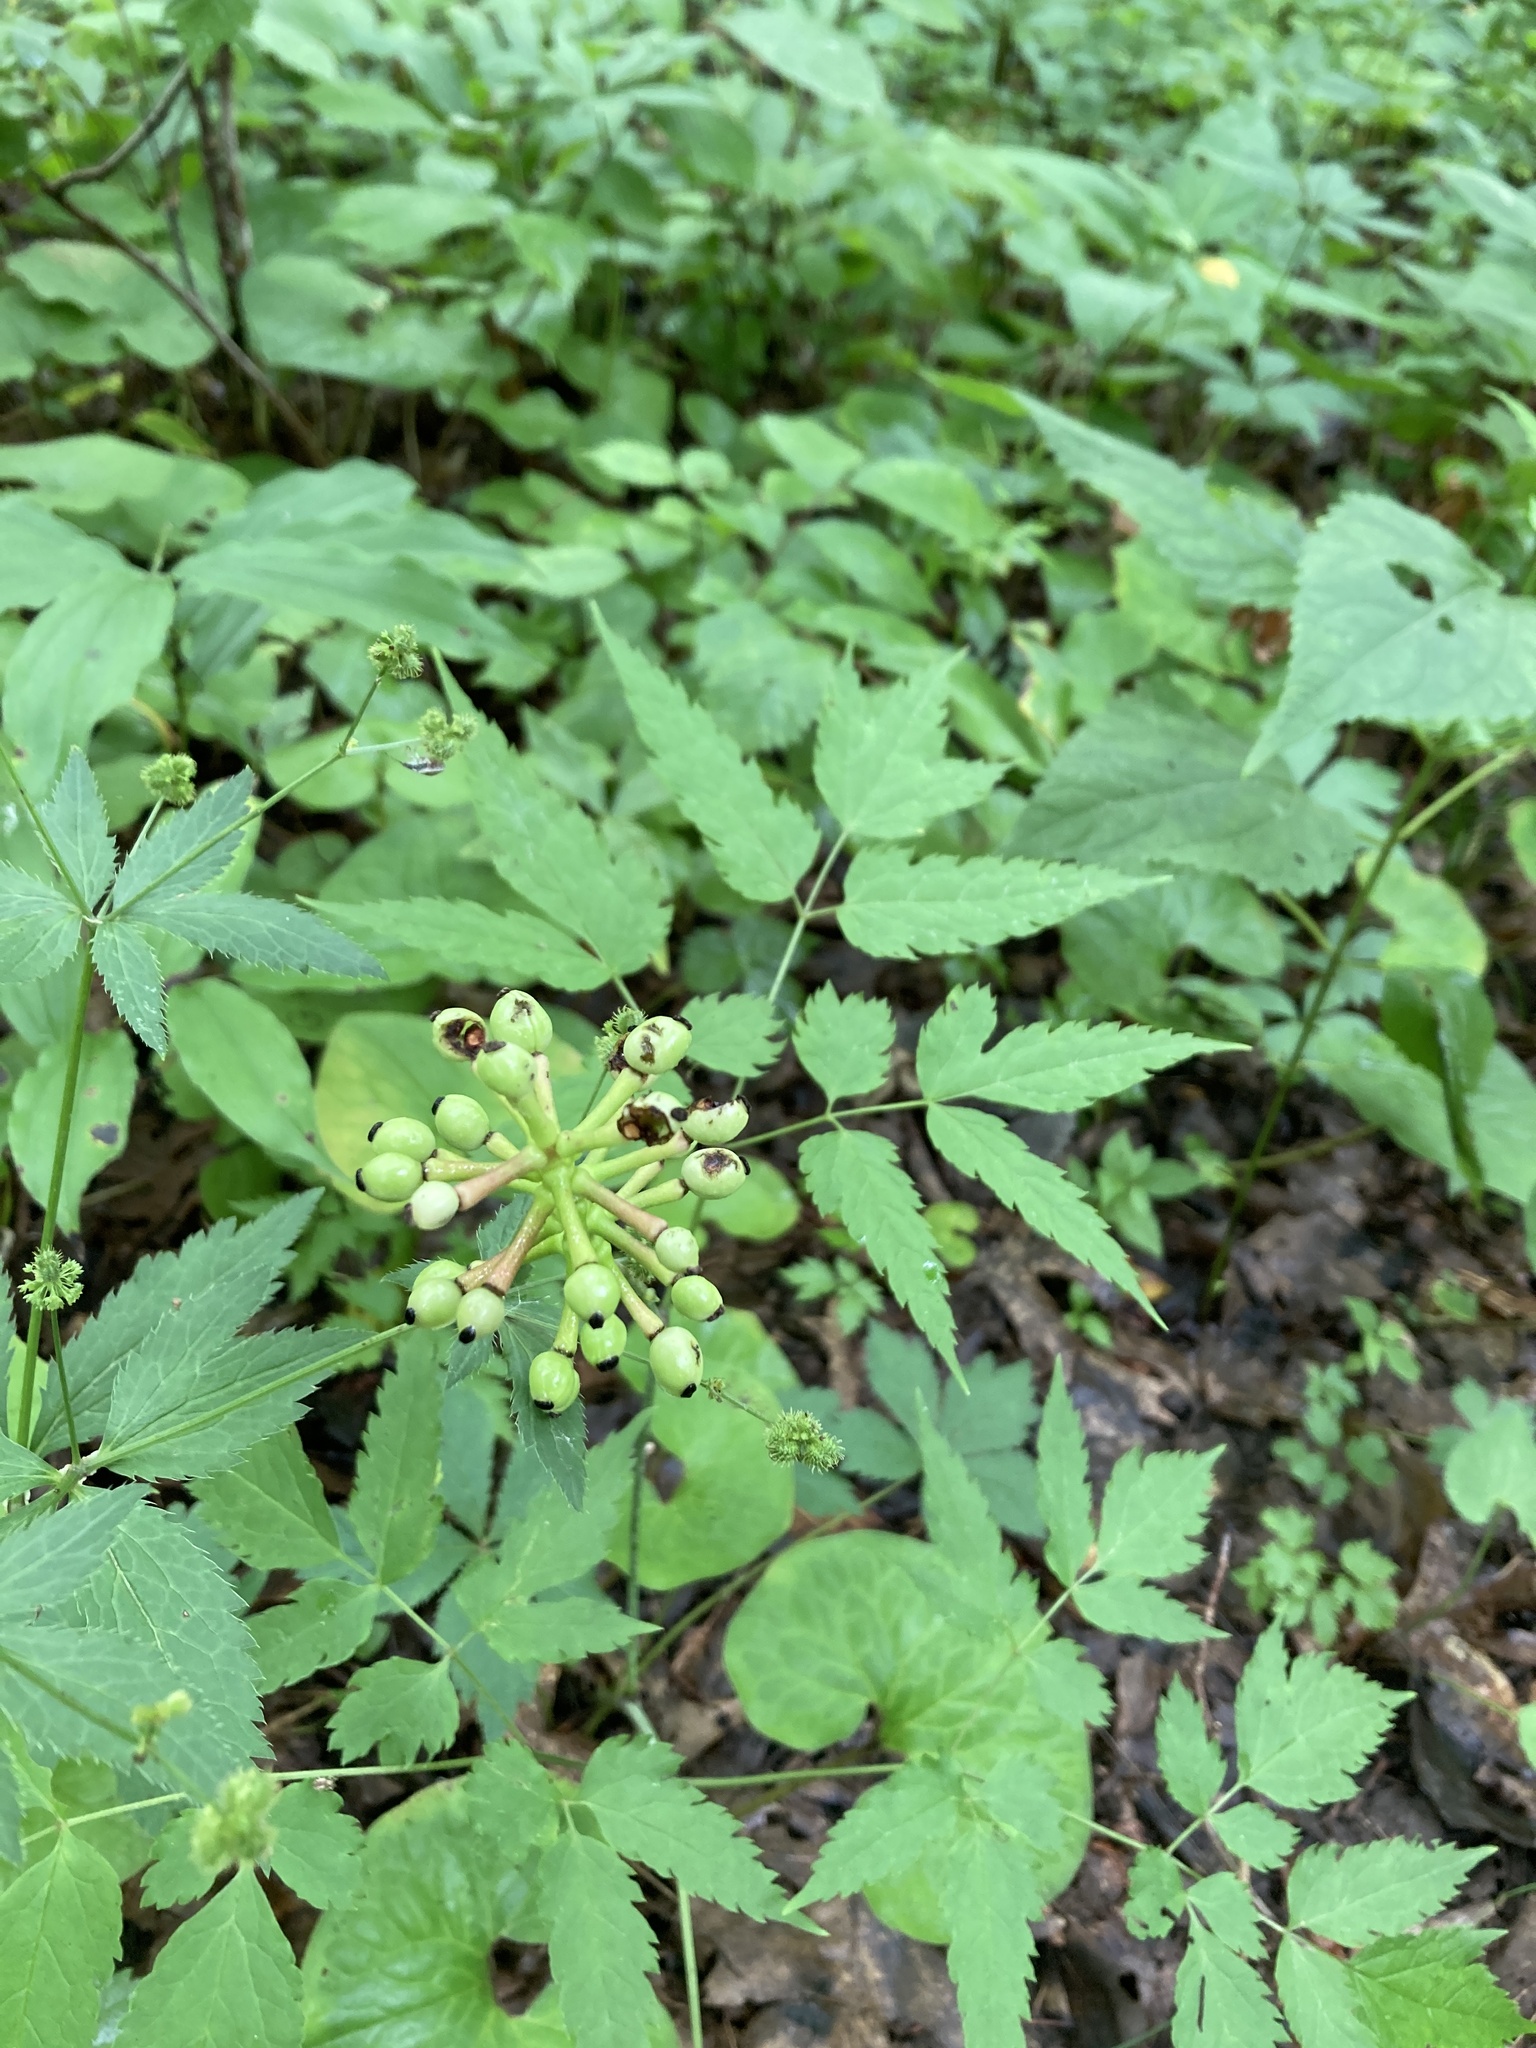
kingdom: Plantae
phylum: Tracheophyta
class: Magnoliopsida
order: Ranunculales
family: Ranunculaceae
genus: Actaea
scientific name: Actaea pachypoda
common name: Doll's-eyes
